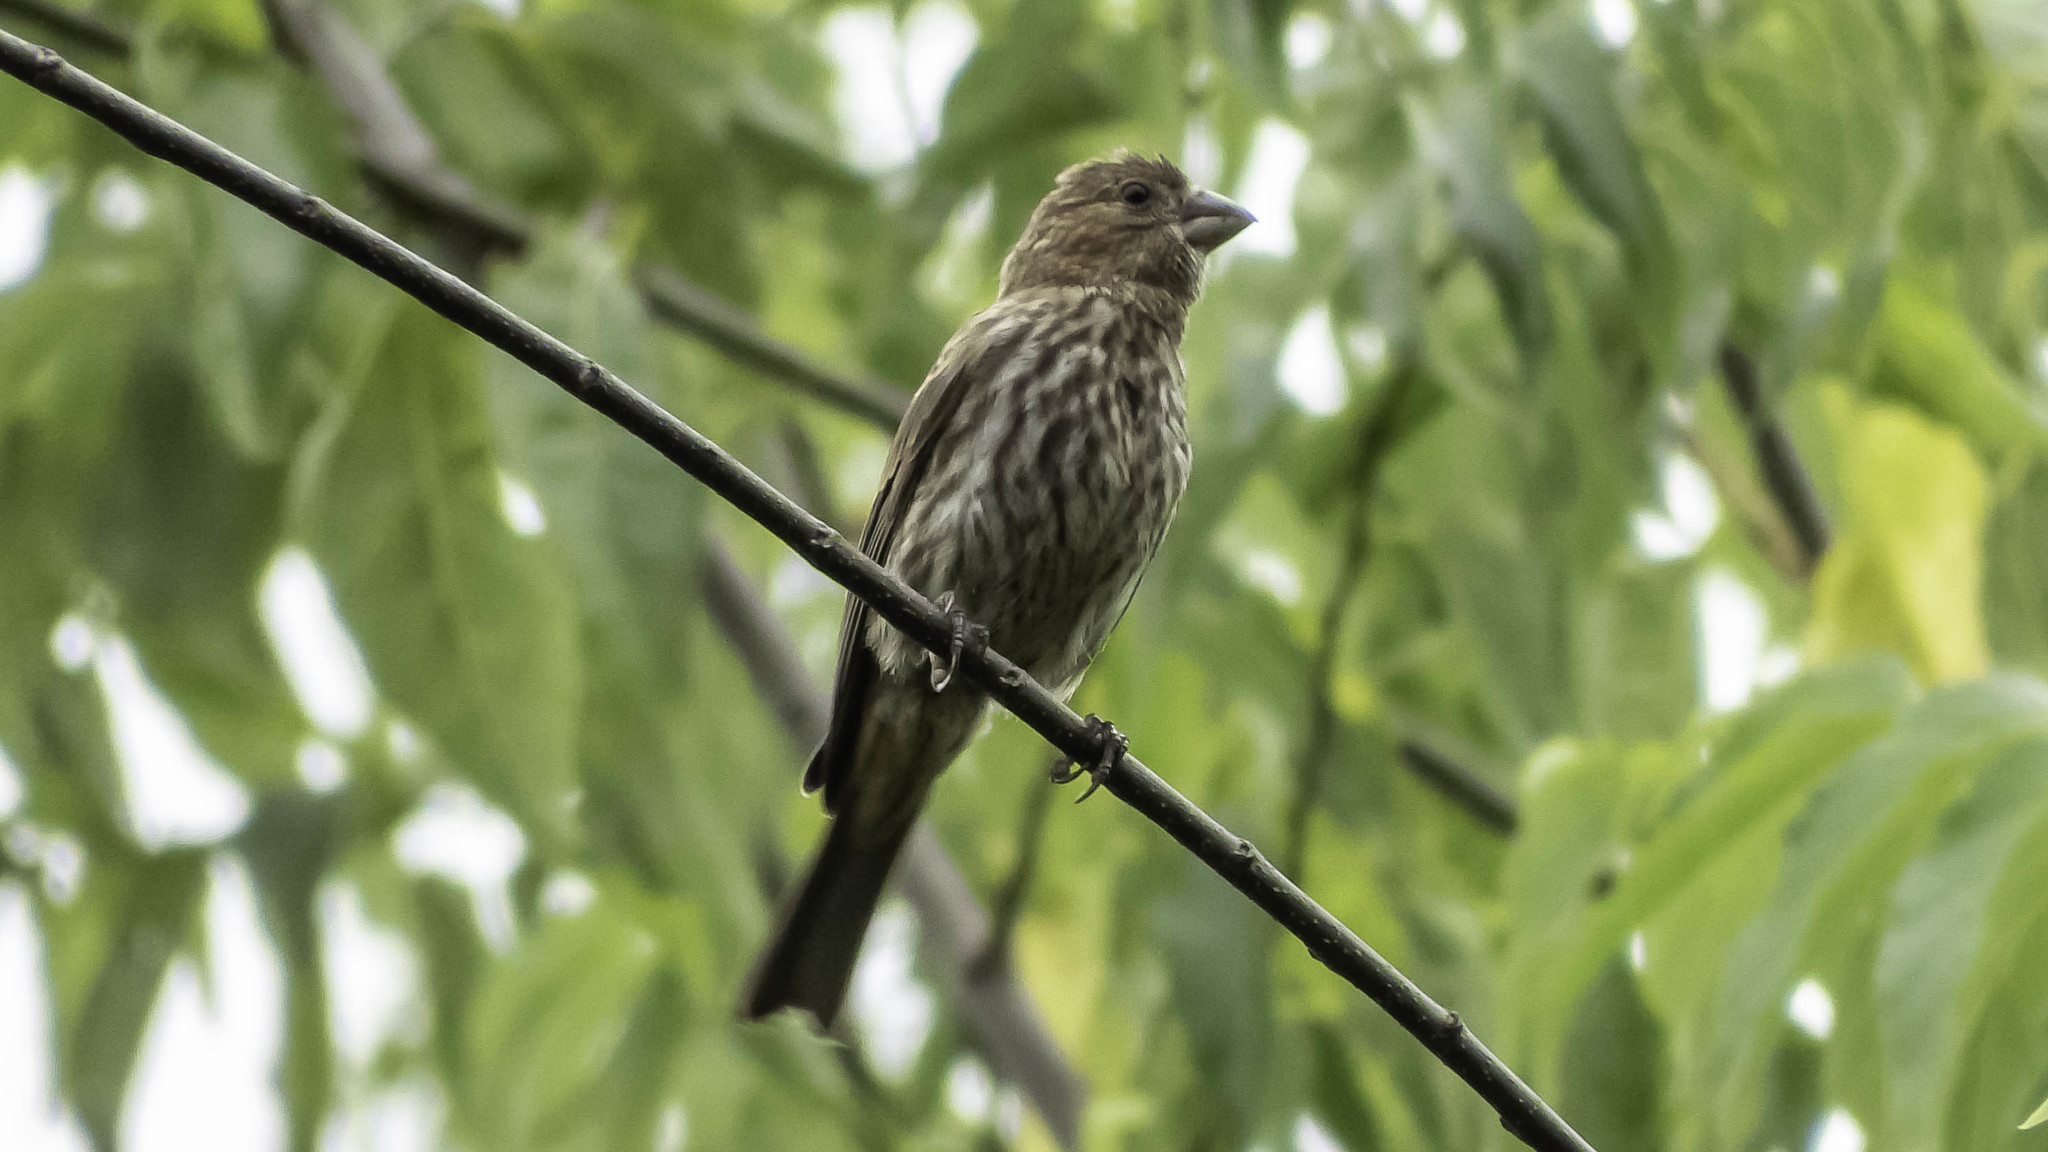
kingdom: Animalia
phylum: Chordata
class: Aves
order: Passeriformes
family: Fringillidae
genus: Haemorhous
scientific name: Haemorhous mexicanus
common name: House finch
